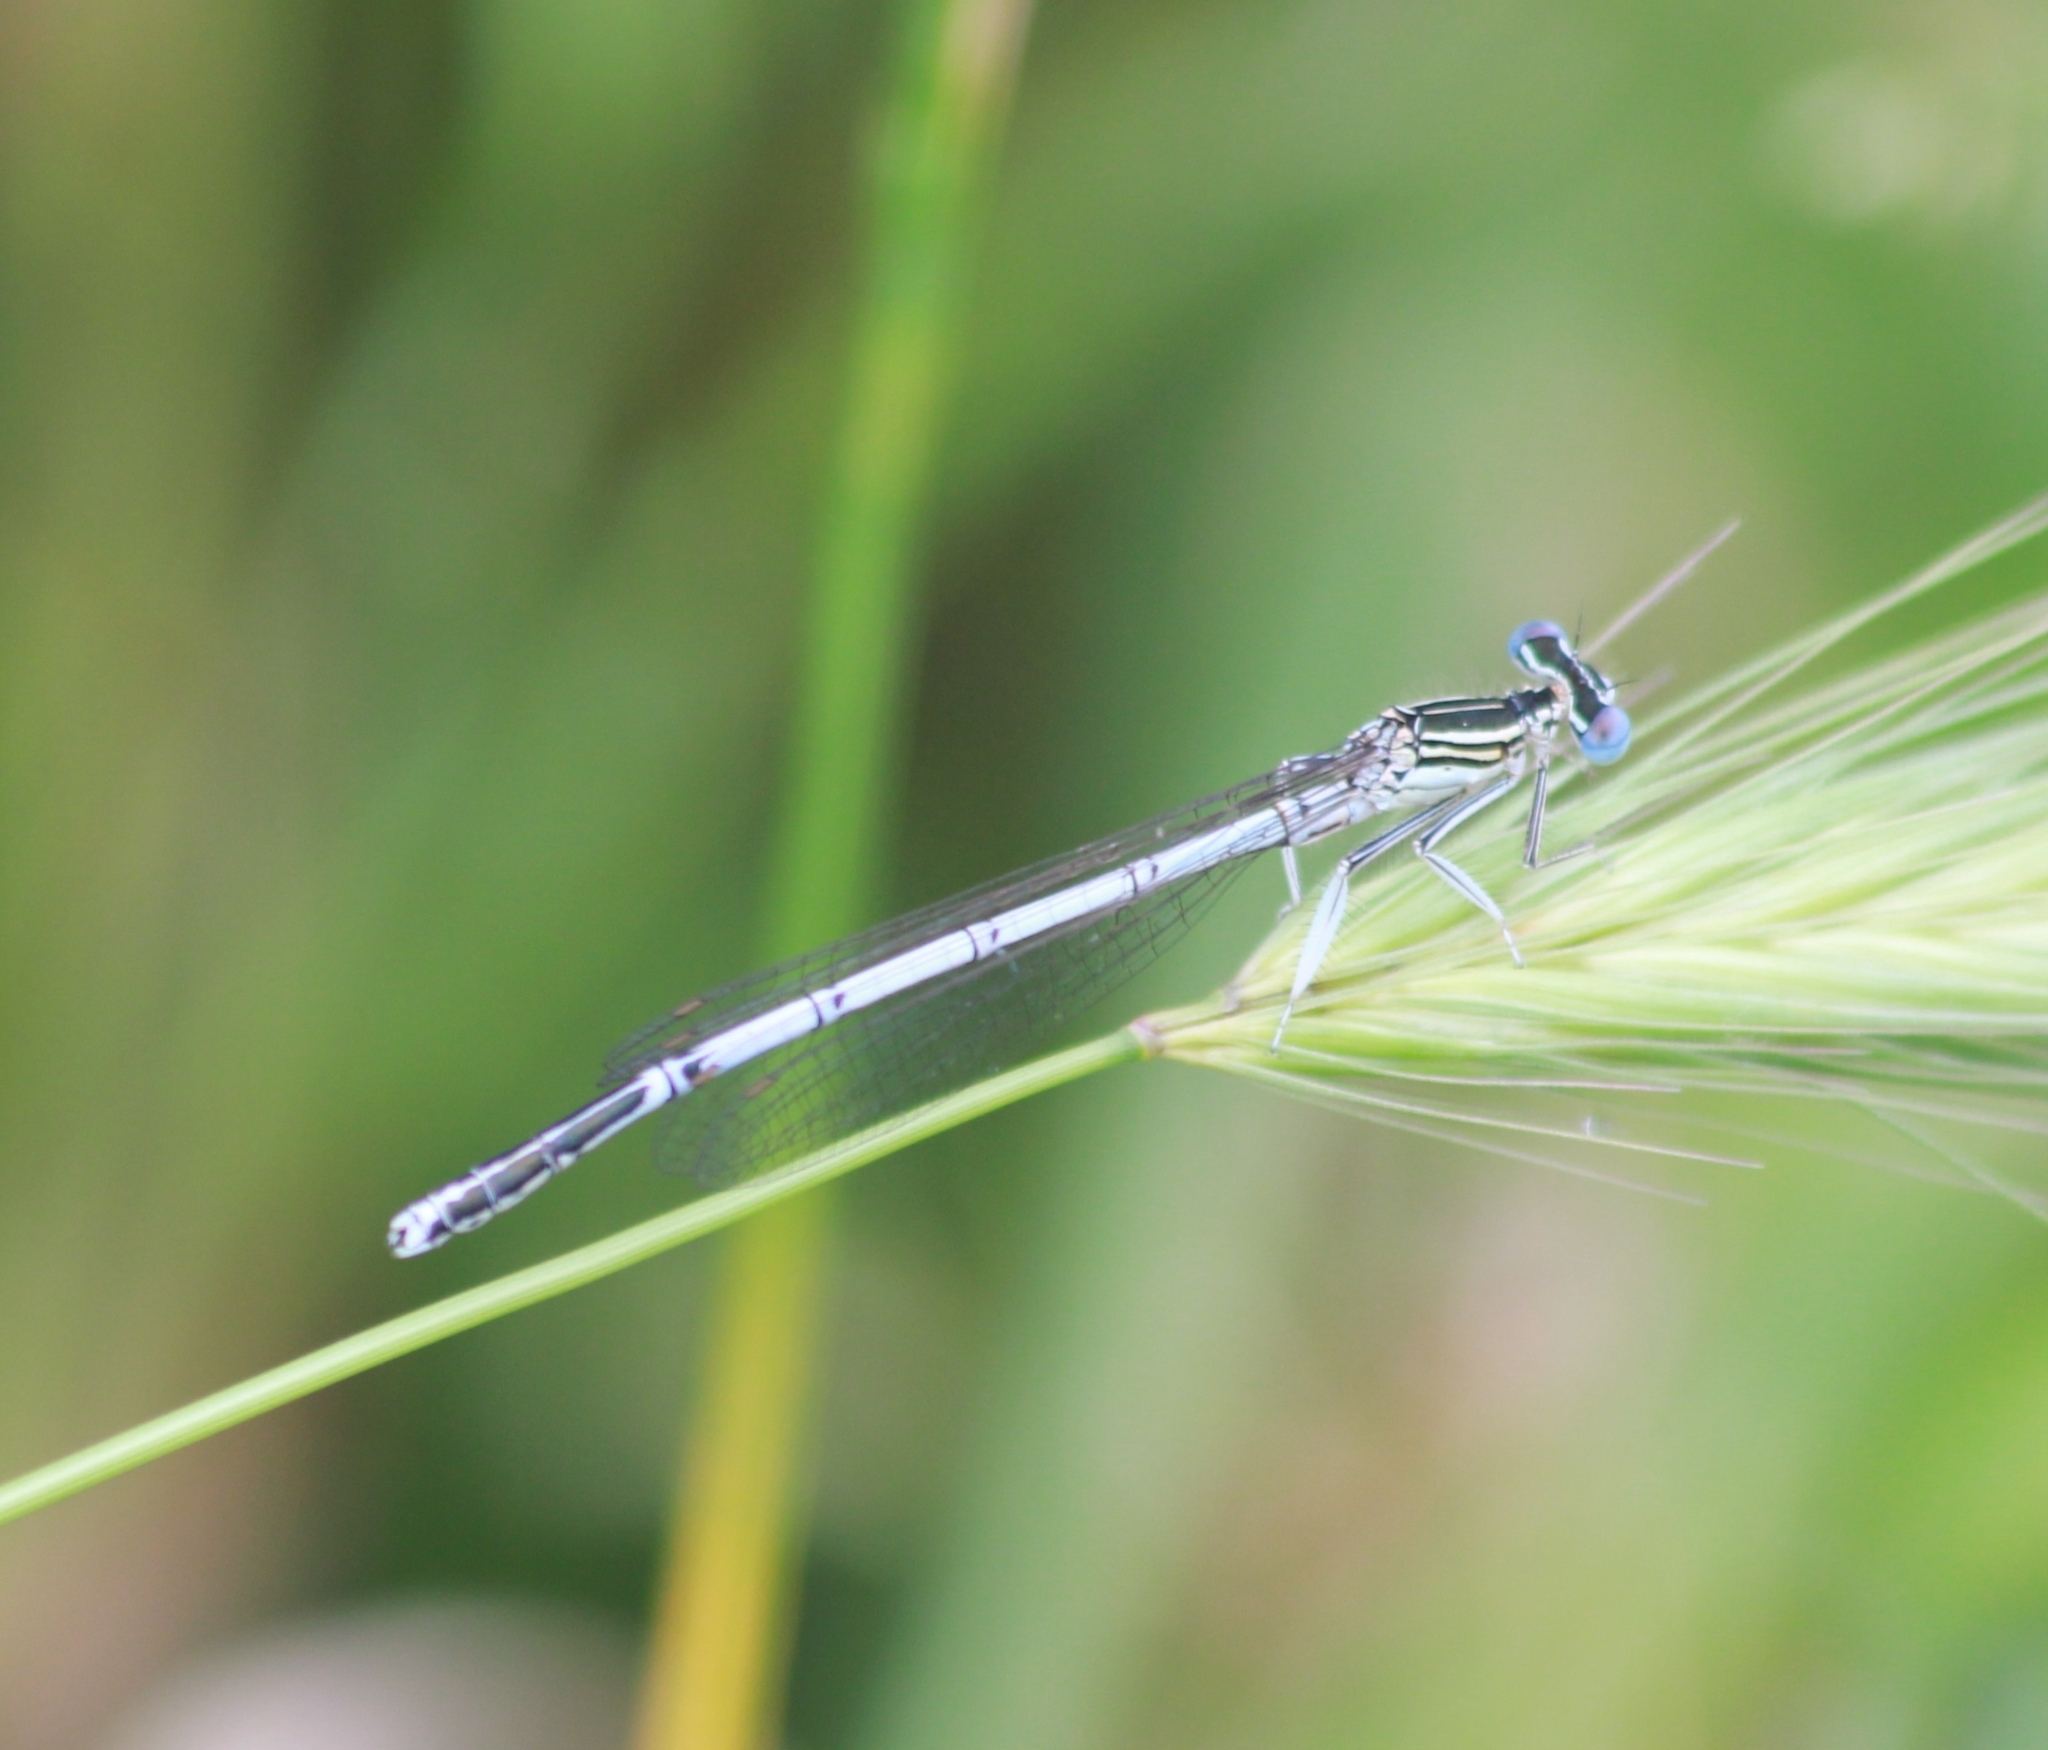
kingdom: Animalia
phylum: Arthropoda
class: Insecta
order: Odonata
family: Platycnemididae
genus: Platycnemis
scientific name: Platycnemis pennipes
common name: White-legged damselfly
